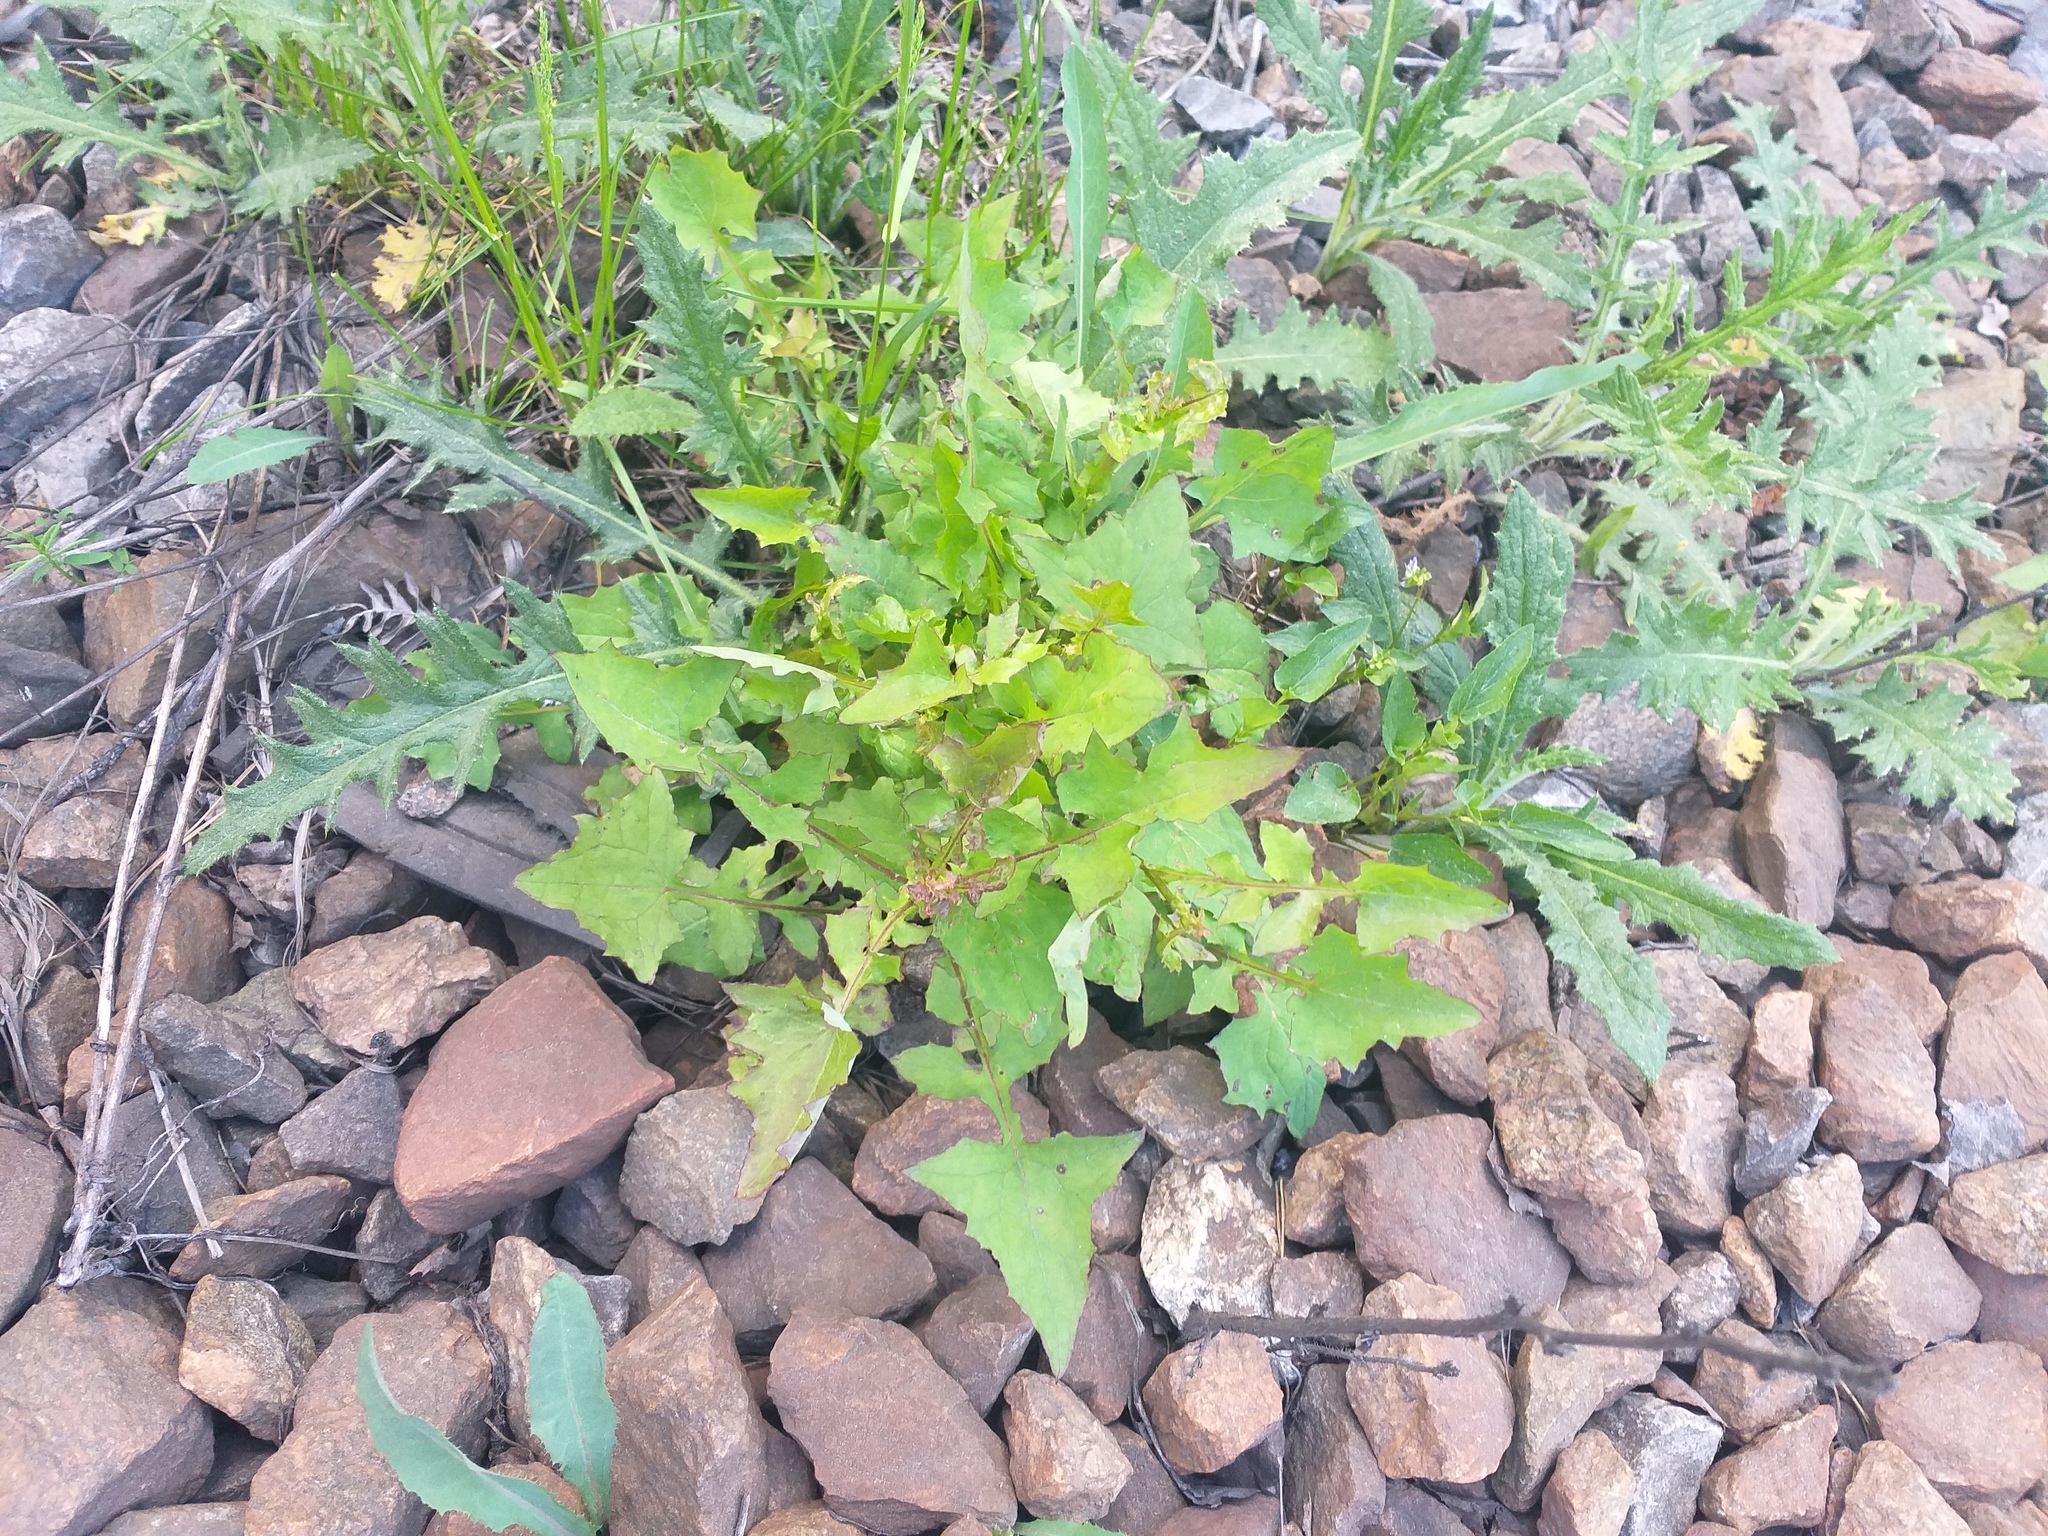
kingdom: Plantae
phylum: Tracheophyta
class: Magnoliopsida
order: Asterales
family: Asteraceae
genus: Mycelis
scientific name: Mycelis muralis
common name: Wall lettuce
